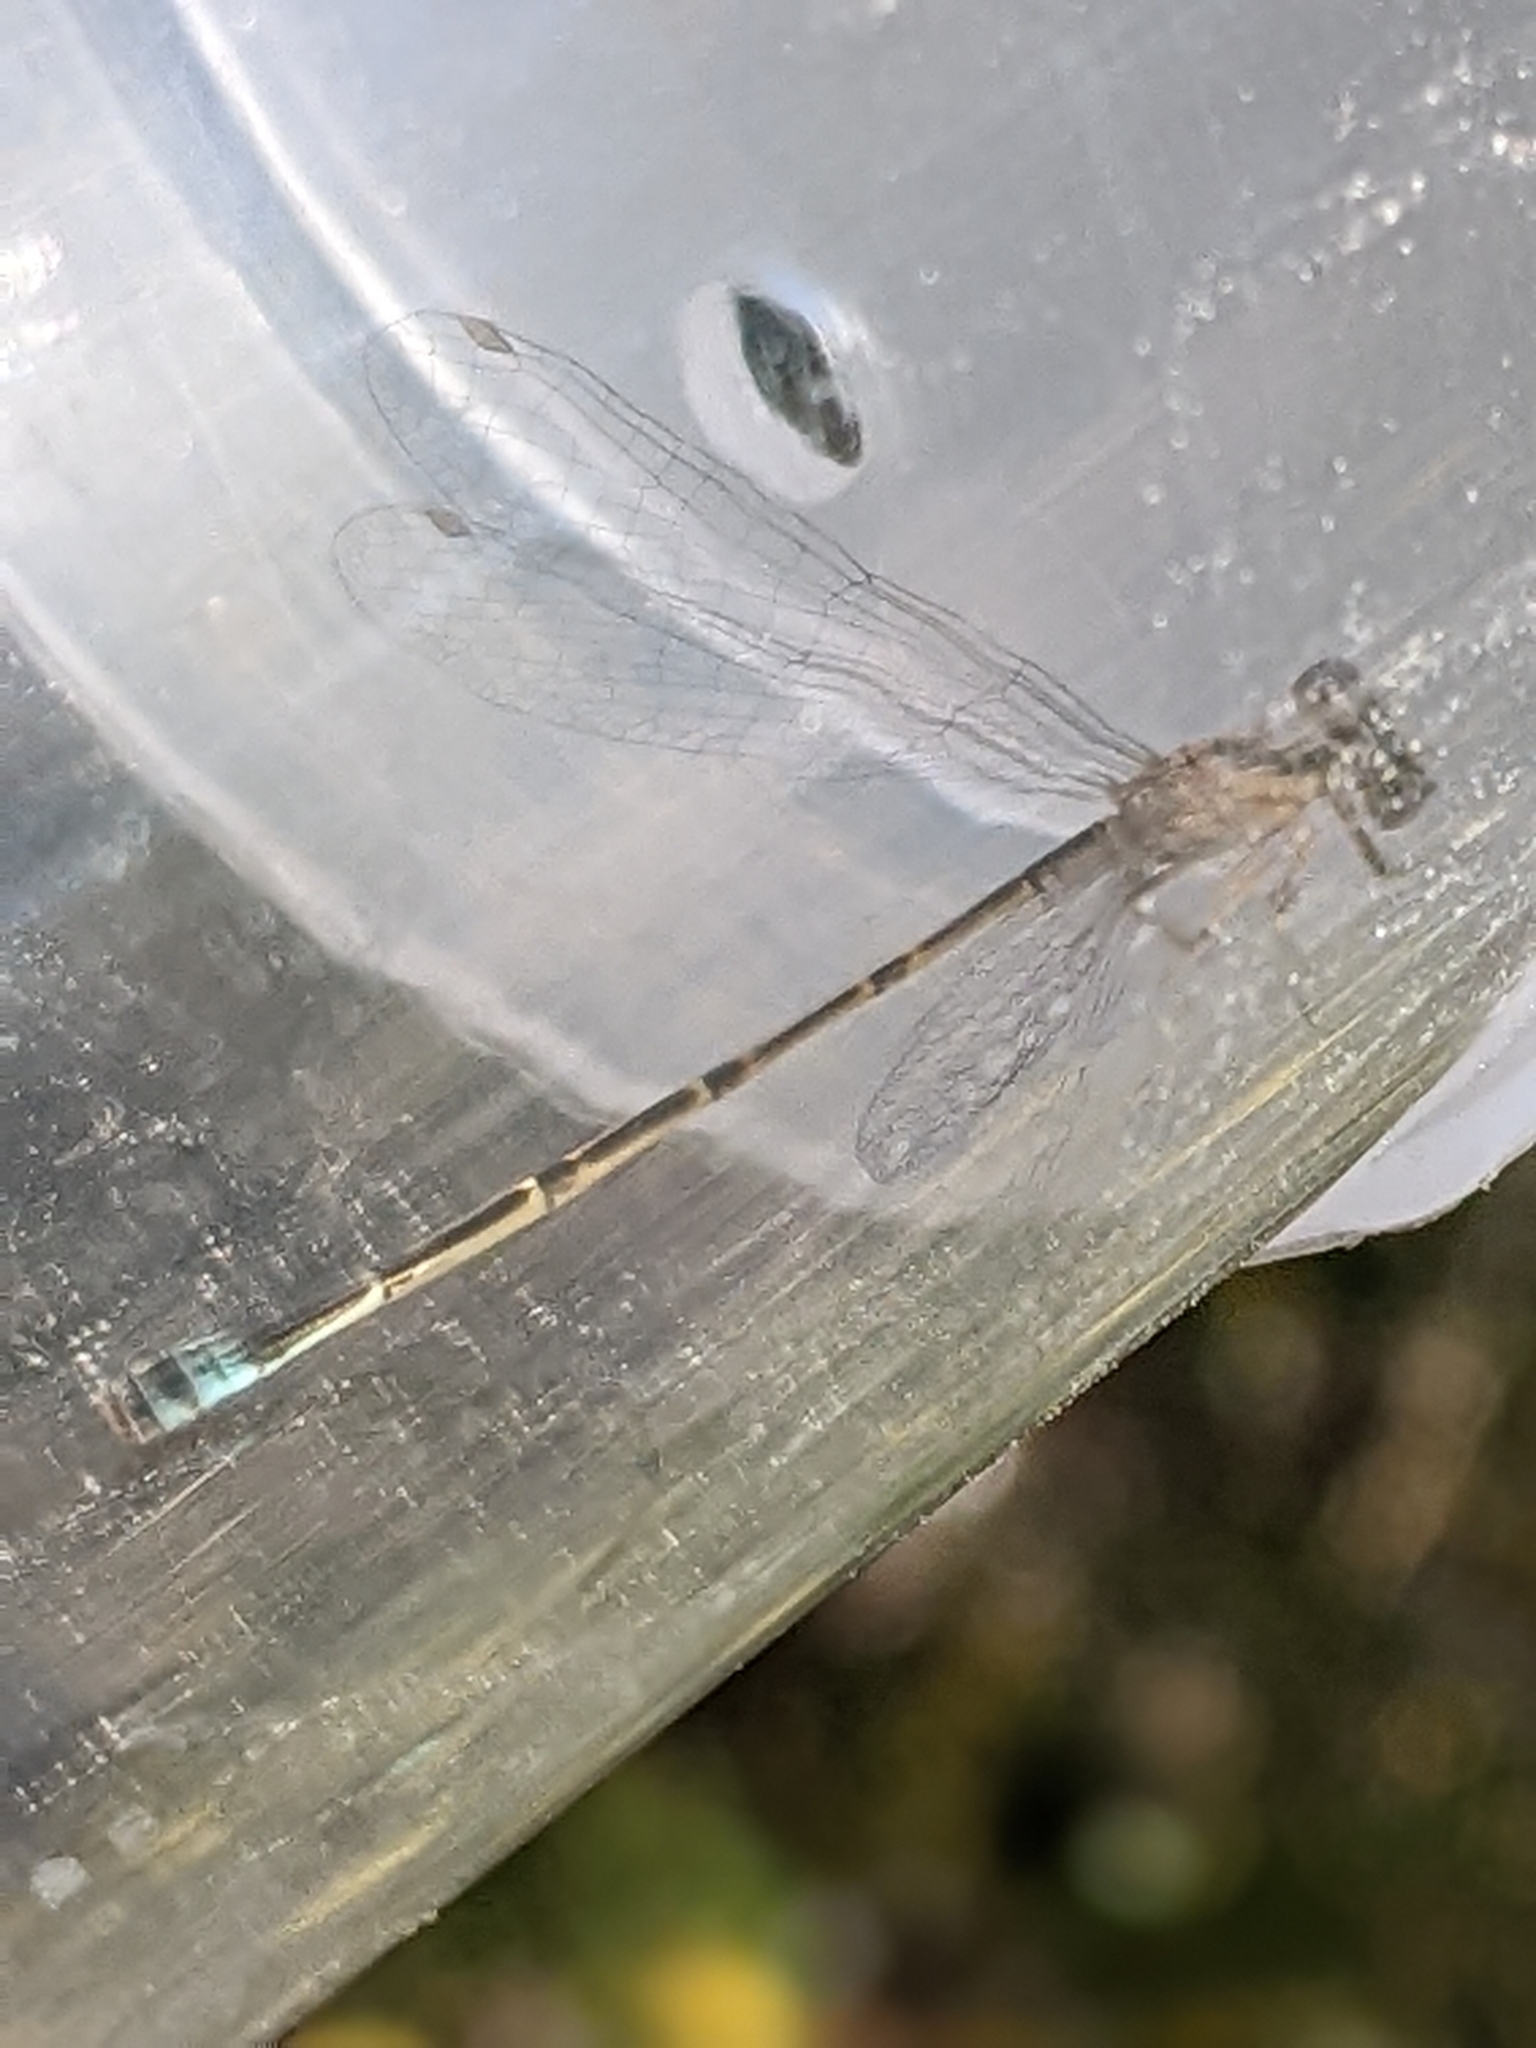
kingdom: Animalia
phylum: Arthropoda
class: Insecta
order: Odonata
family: Coenagrionidae
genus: Ischnura
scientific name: Ischnura barberi
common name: Desert forktail
